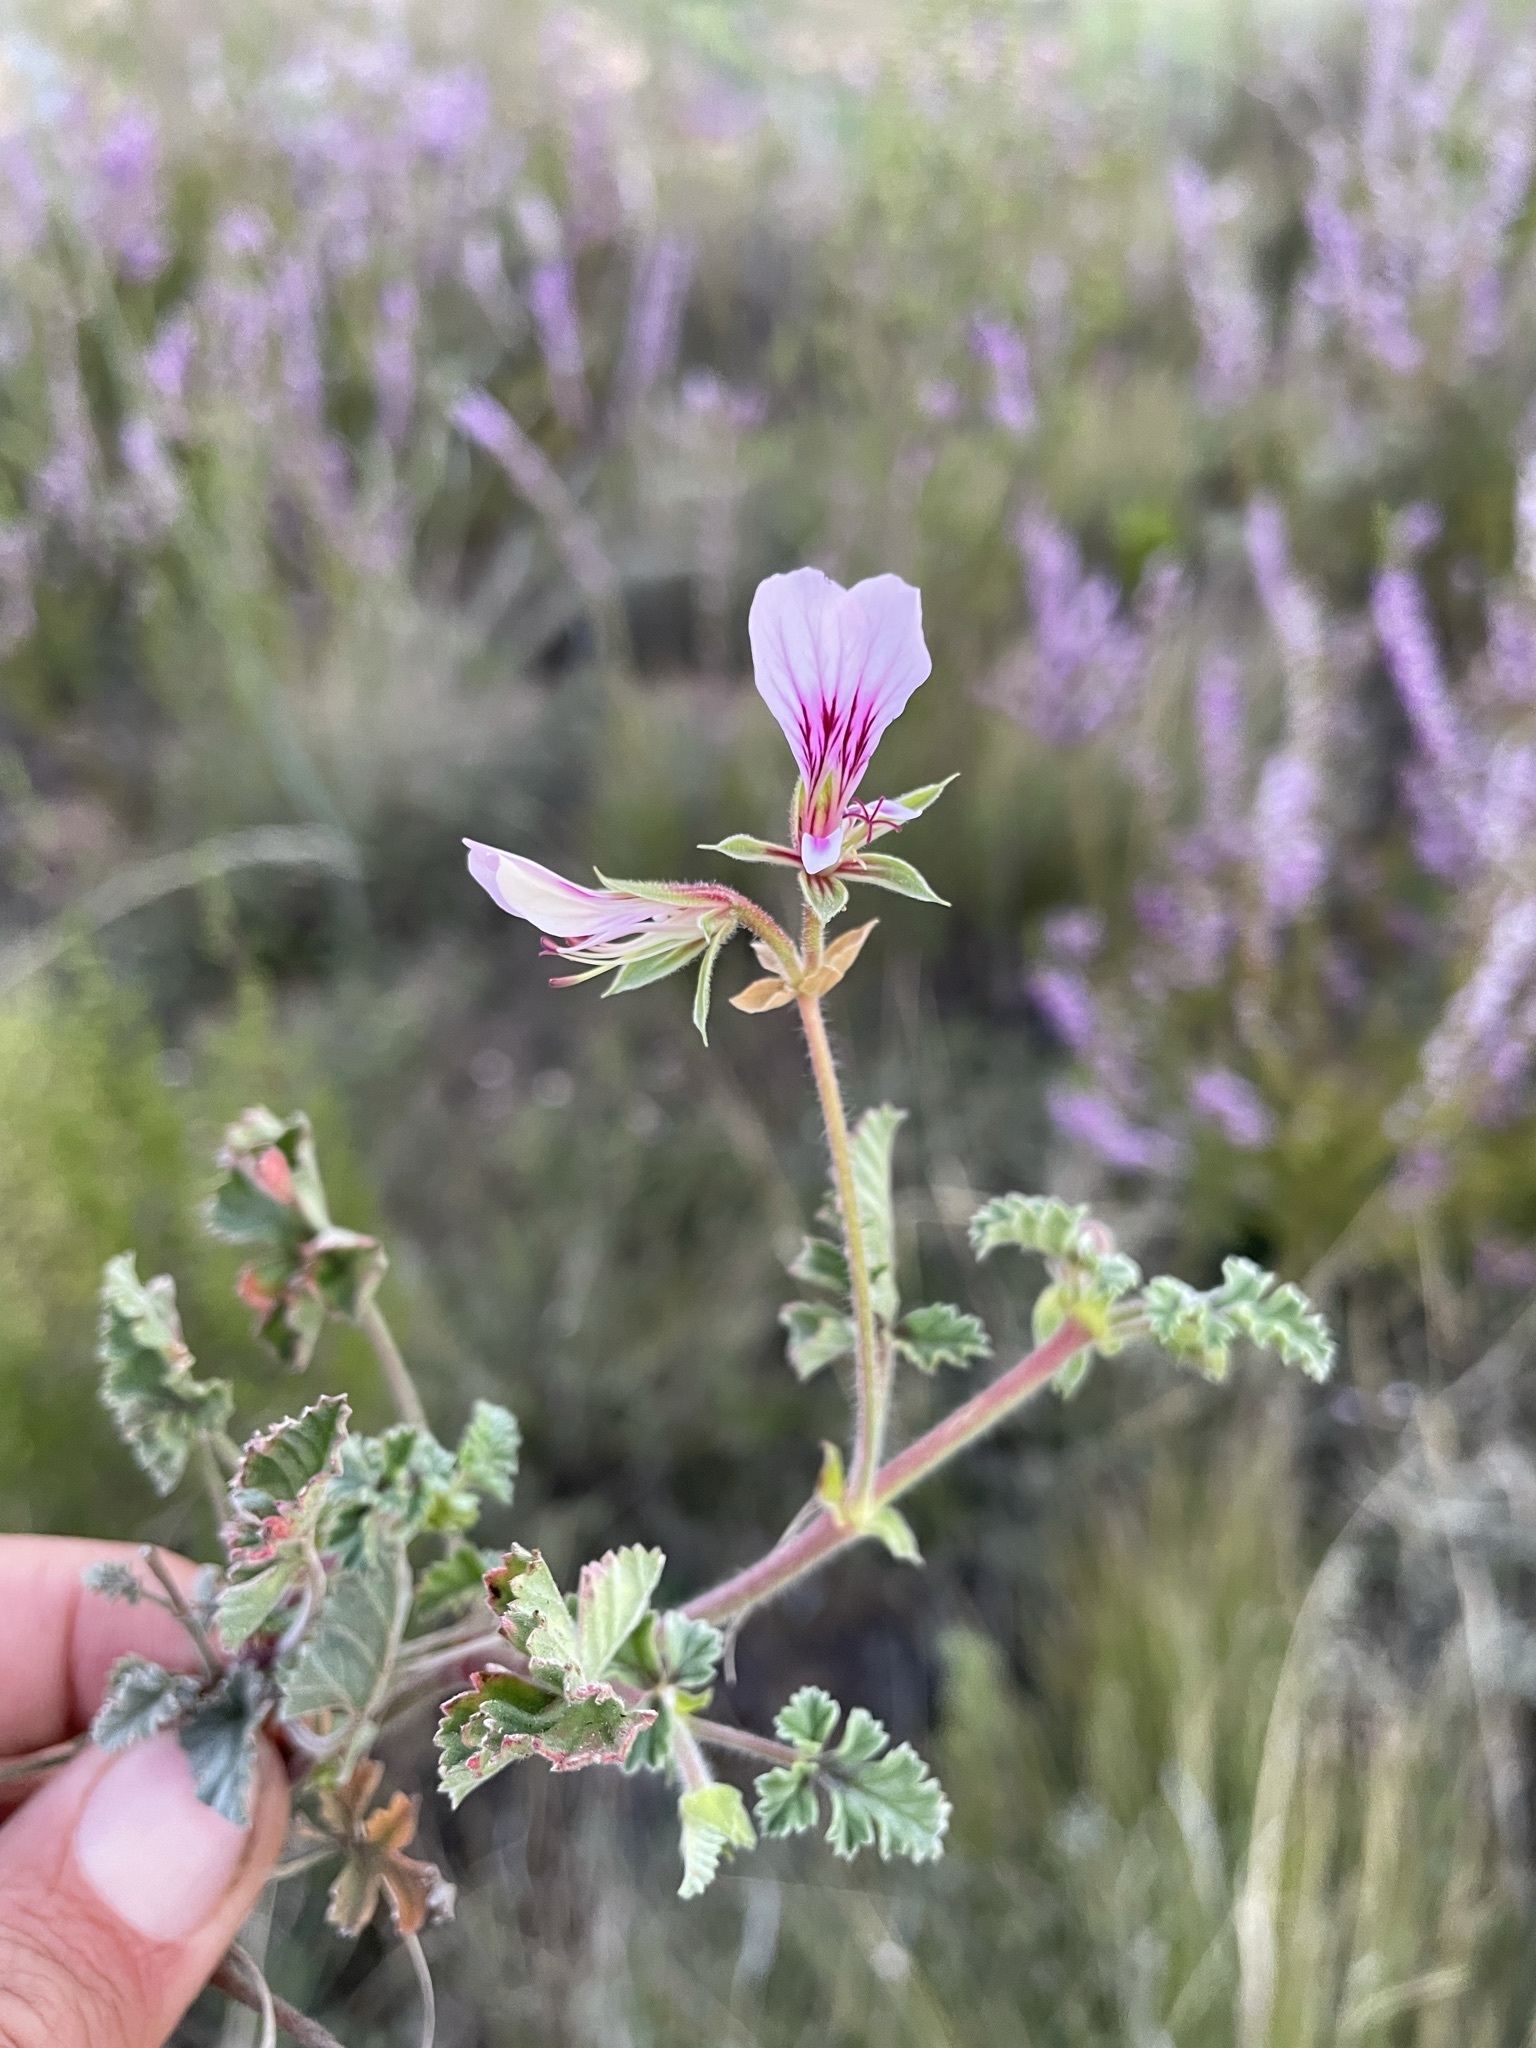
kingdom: Plantae
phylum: Tracheophyta
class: Magnoliopsida
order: Geraniales
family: Geraniaceae
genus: Pelargonium
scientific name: Pelargonium candicans
